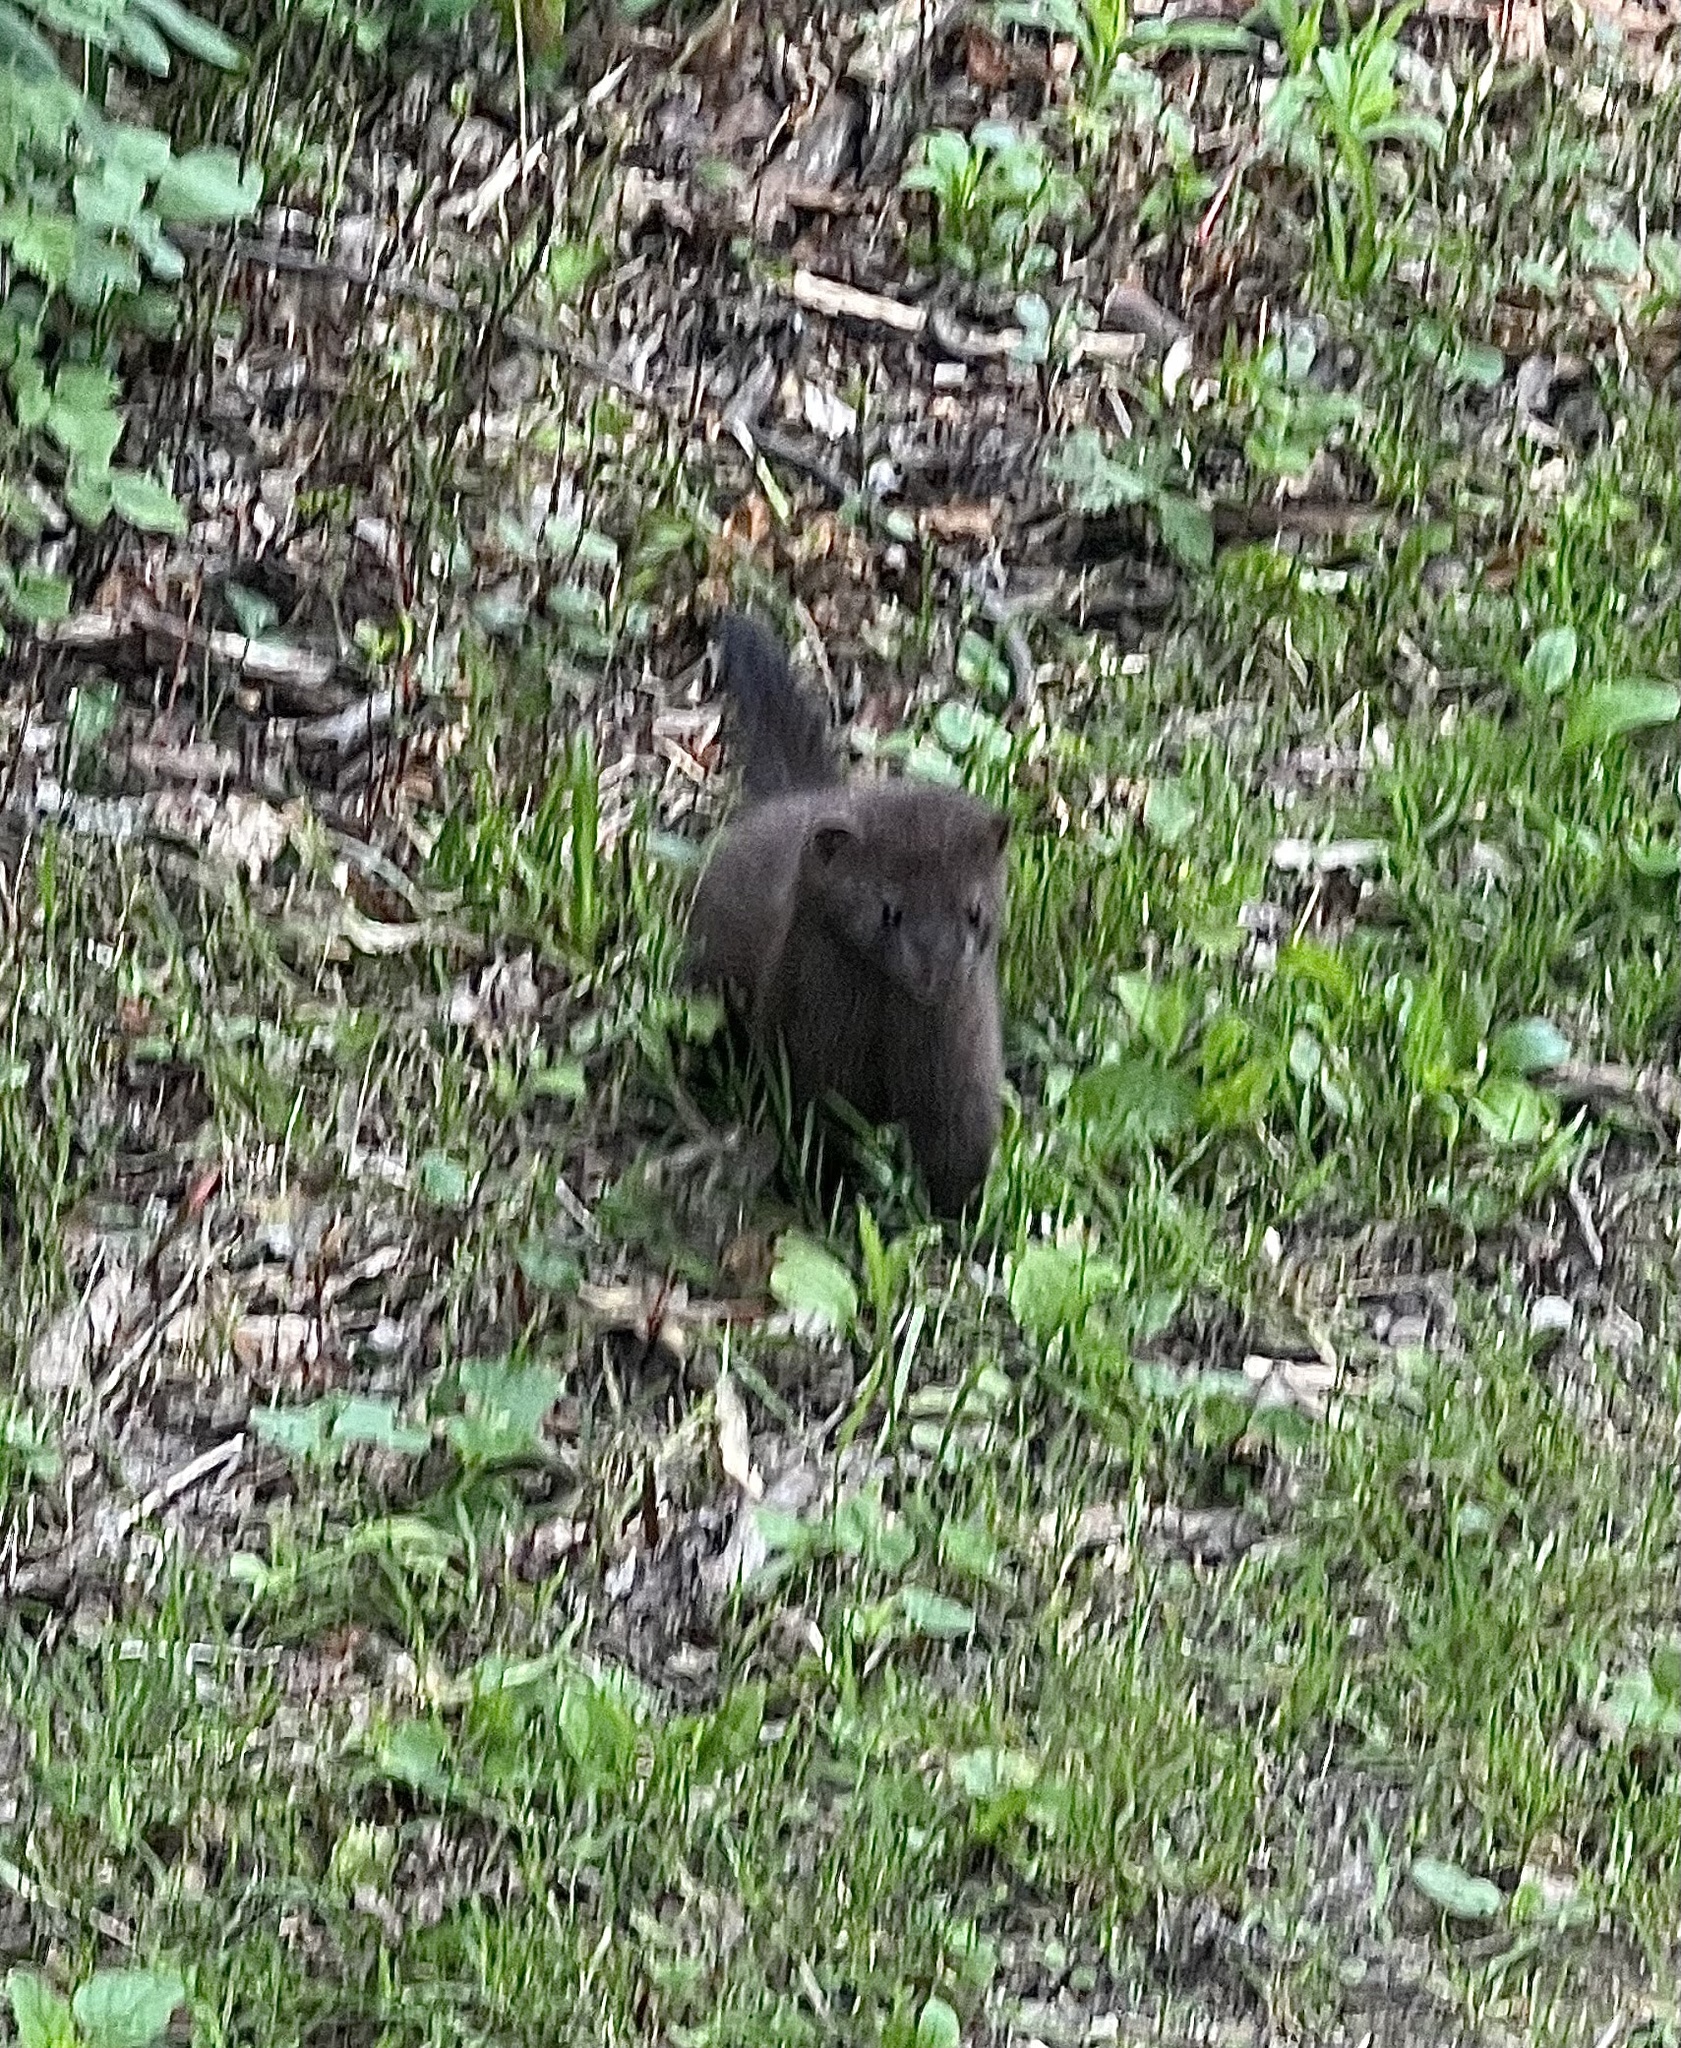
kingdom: Animalia
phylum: Chordata
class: Mammalia
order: Carnivora
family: Mustelidae
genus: Mustela
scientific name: Mustela
